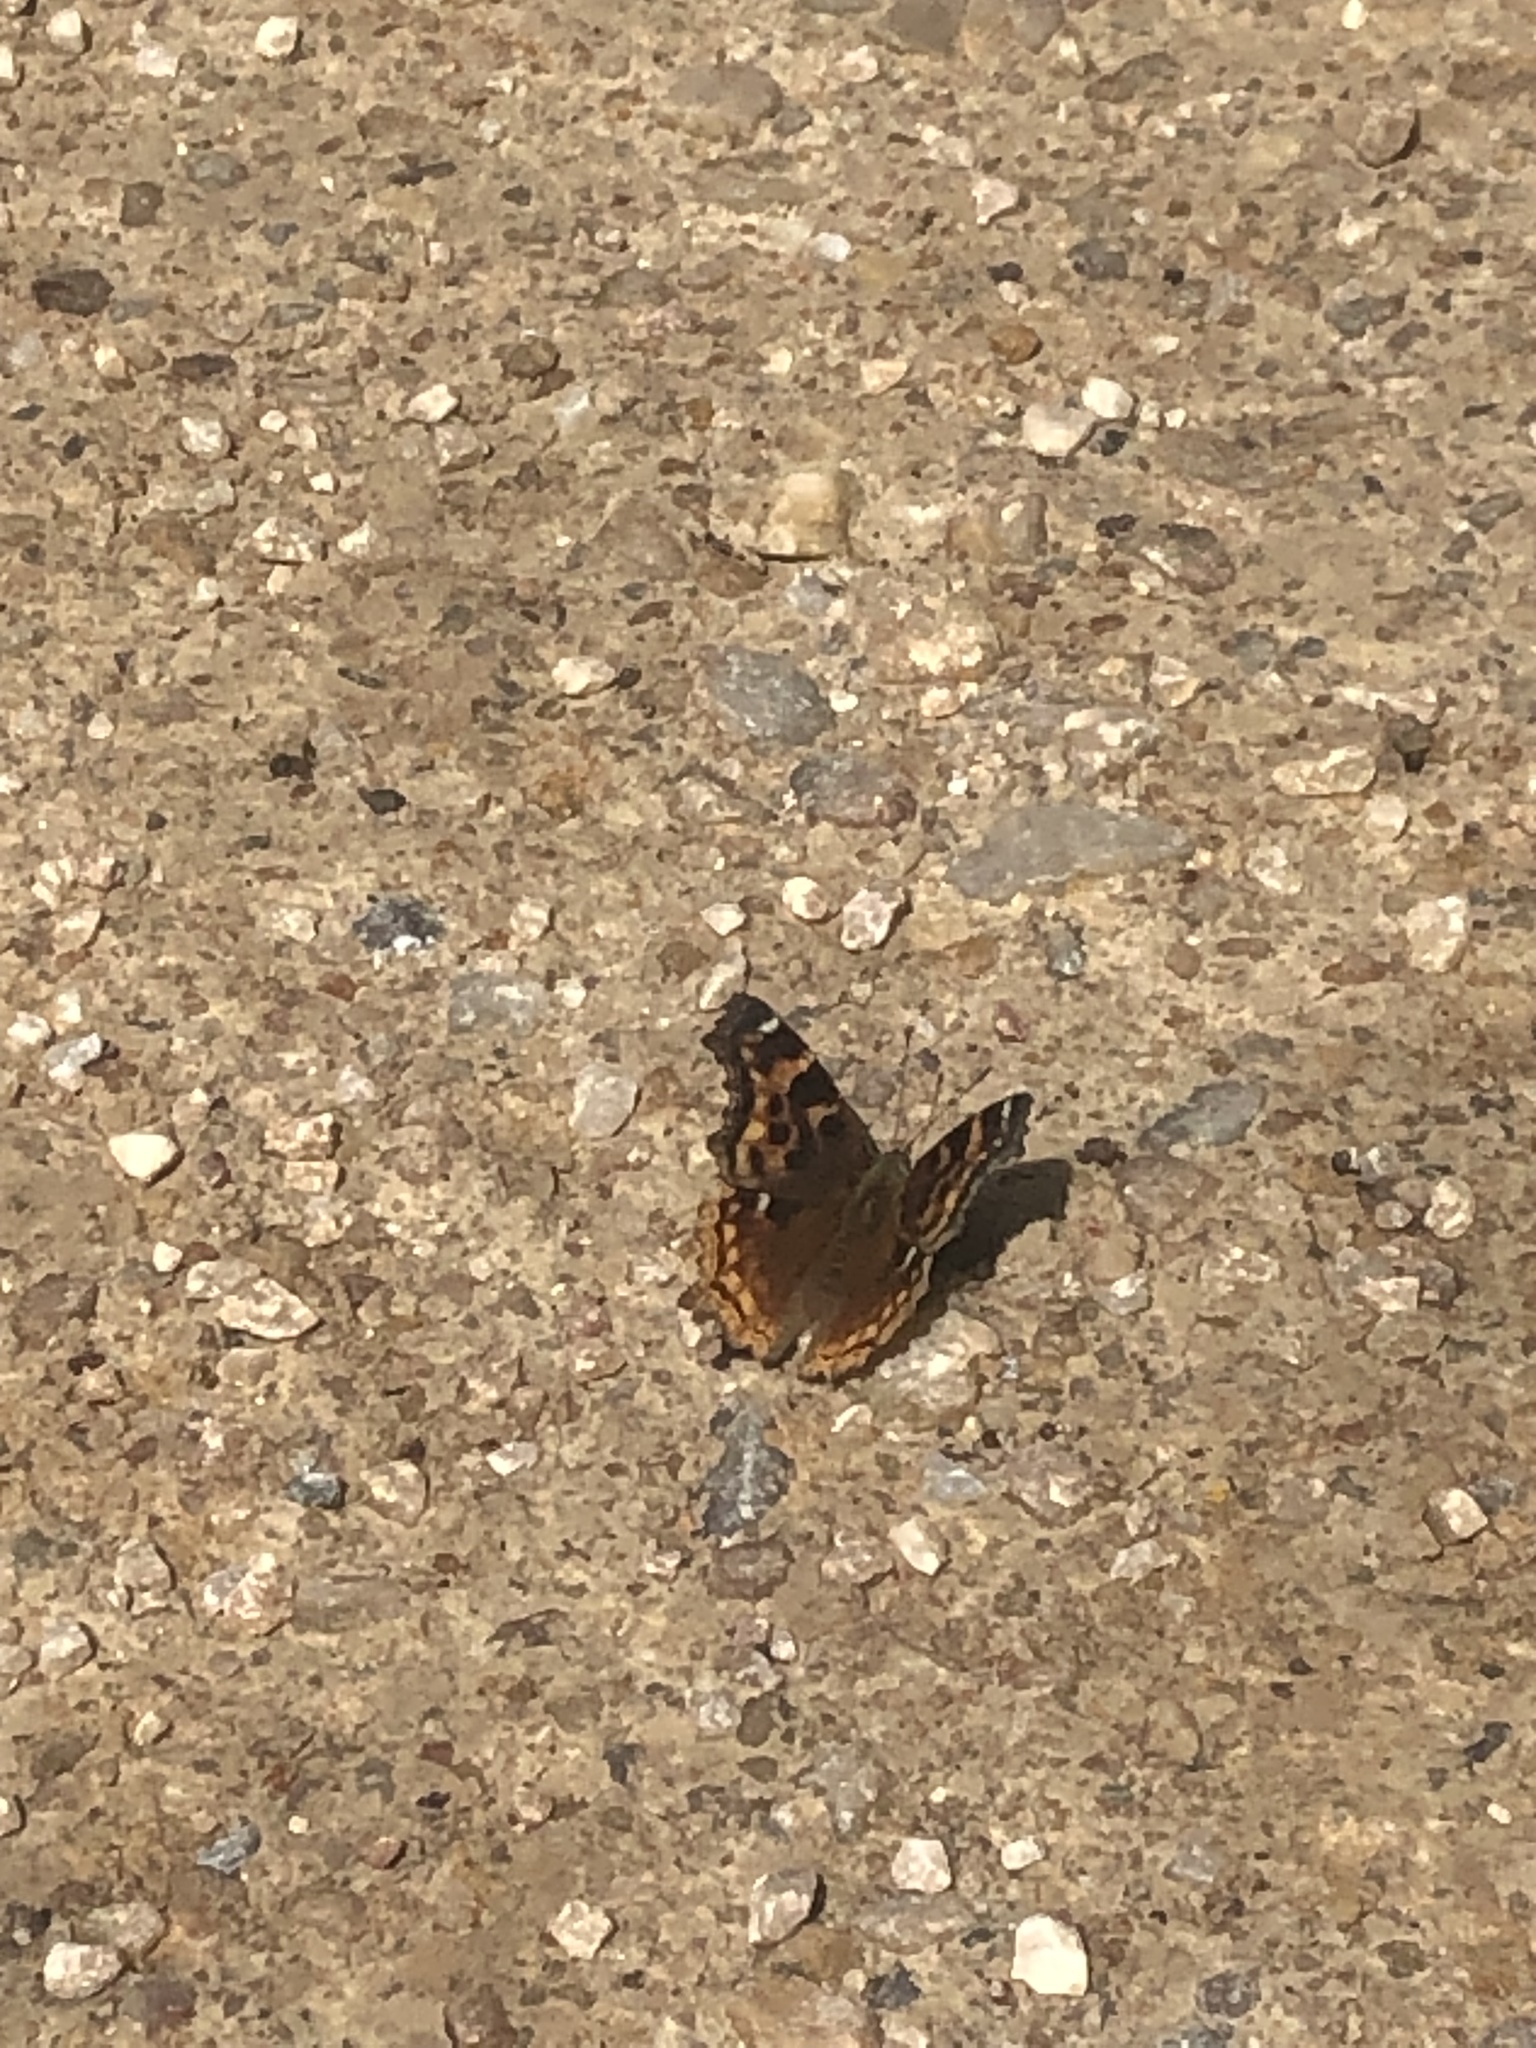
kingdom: Animalia
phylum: Arthropoda
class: Insecta
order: Lepidoptera
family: Nymphalidae
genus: Polygonia
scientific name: Polygonia vaualbum
